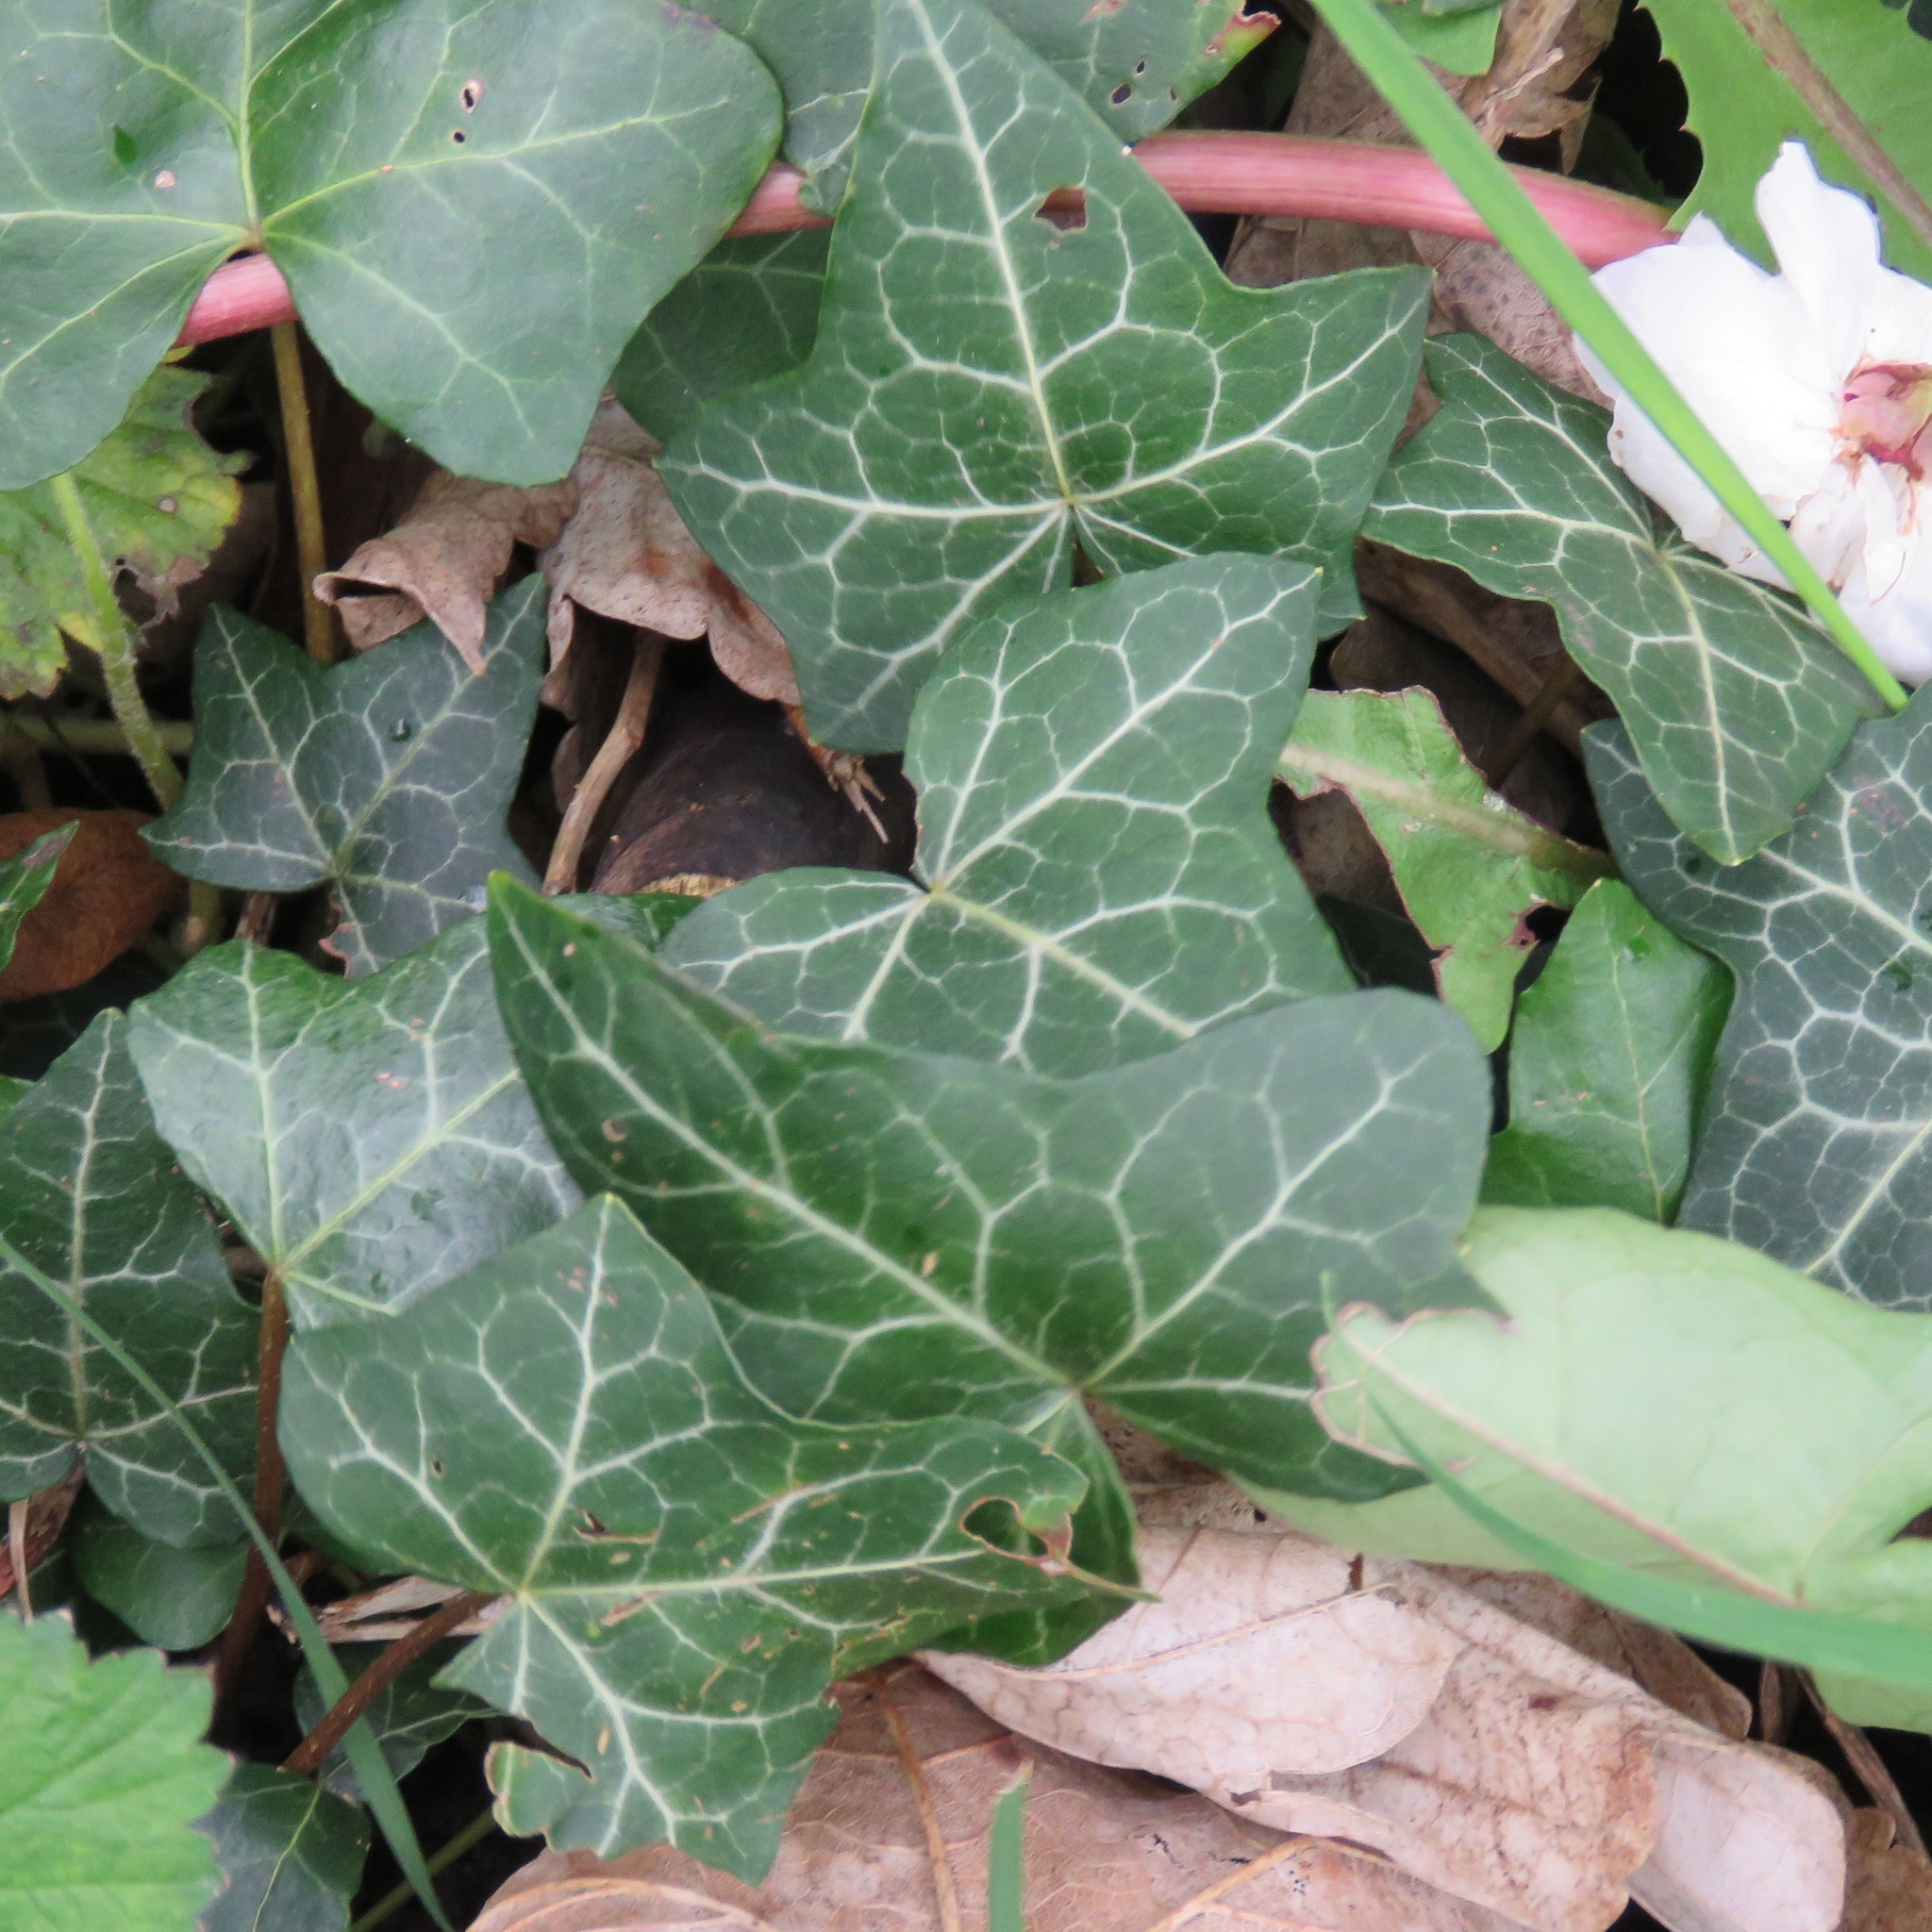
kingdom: Plantae
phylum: Tracheophyta
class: Magnoliopsida
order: Apiales
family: Araliaceae
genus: Hedera
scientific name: Hedera helix
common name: Ivy
